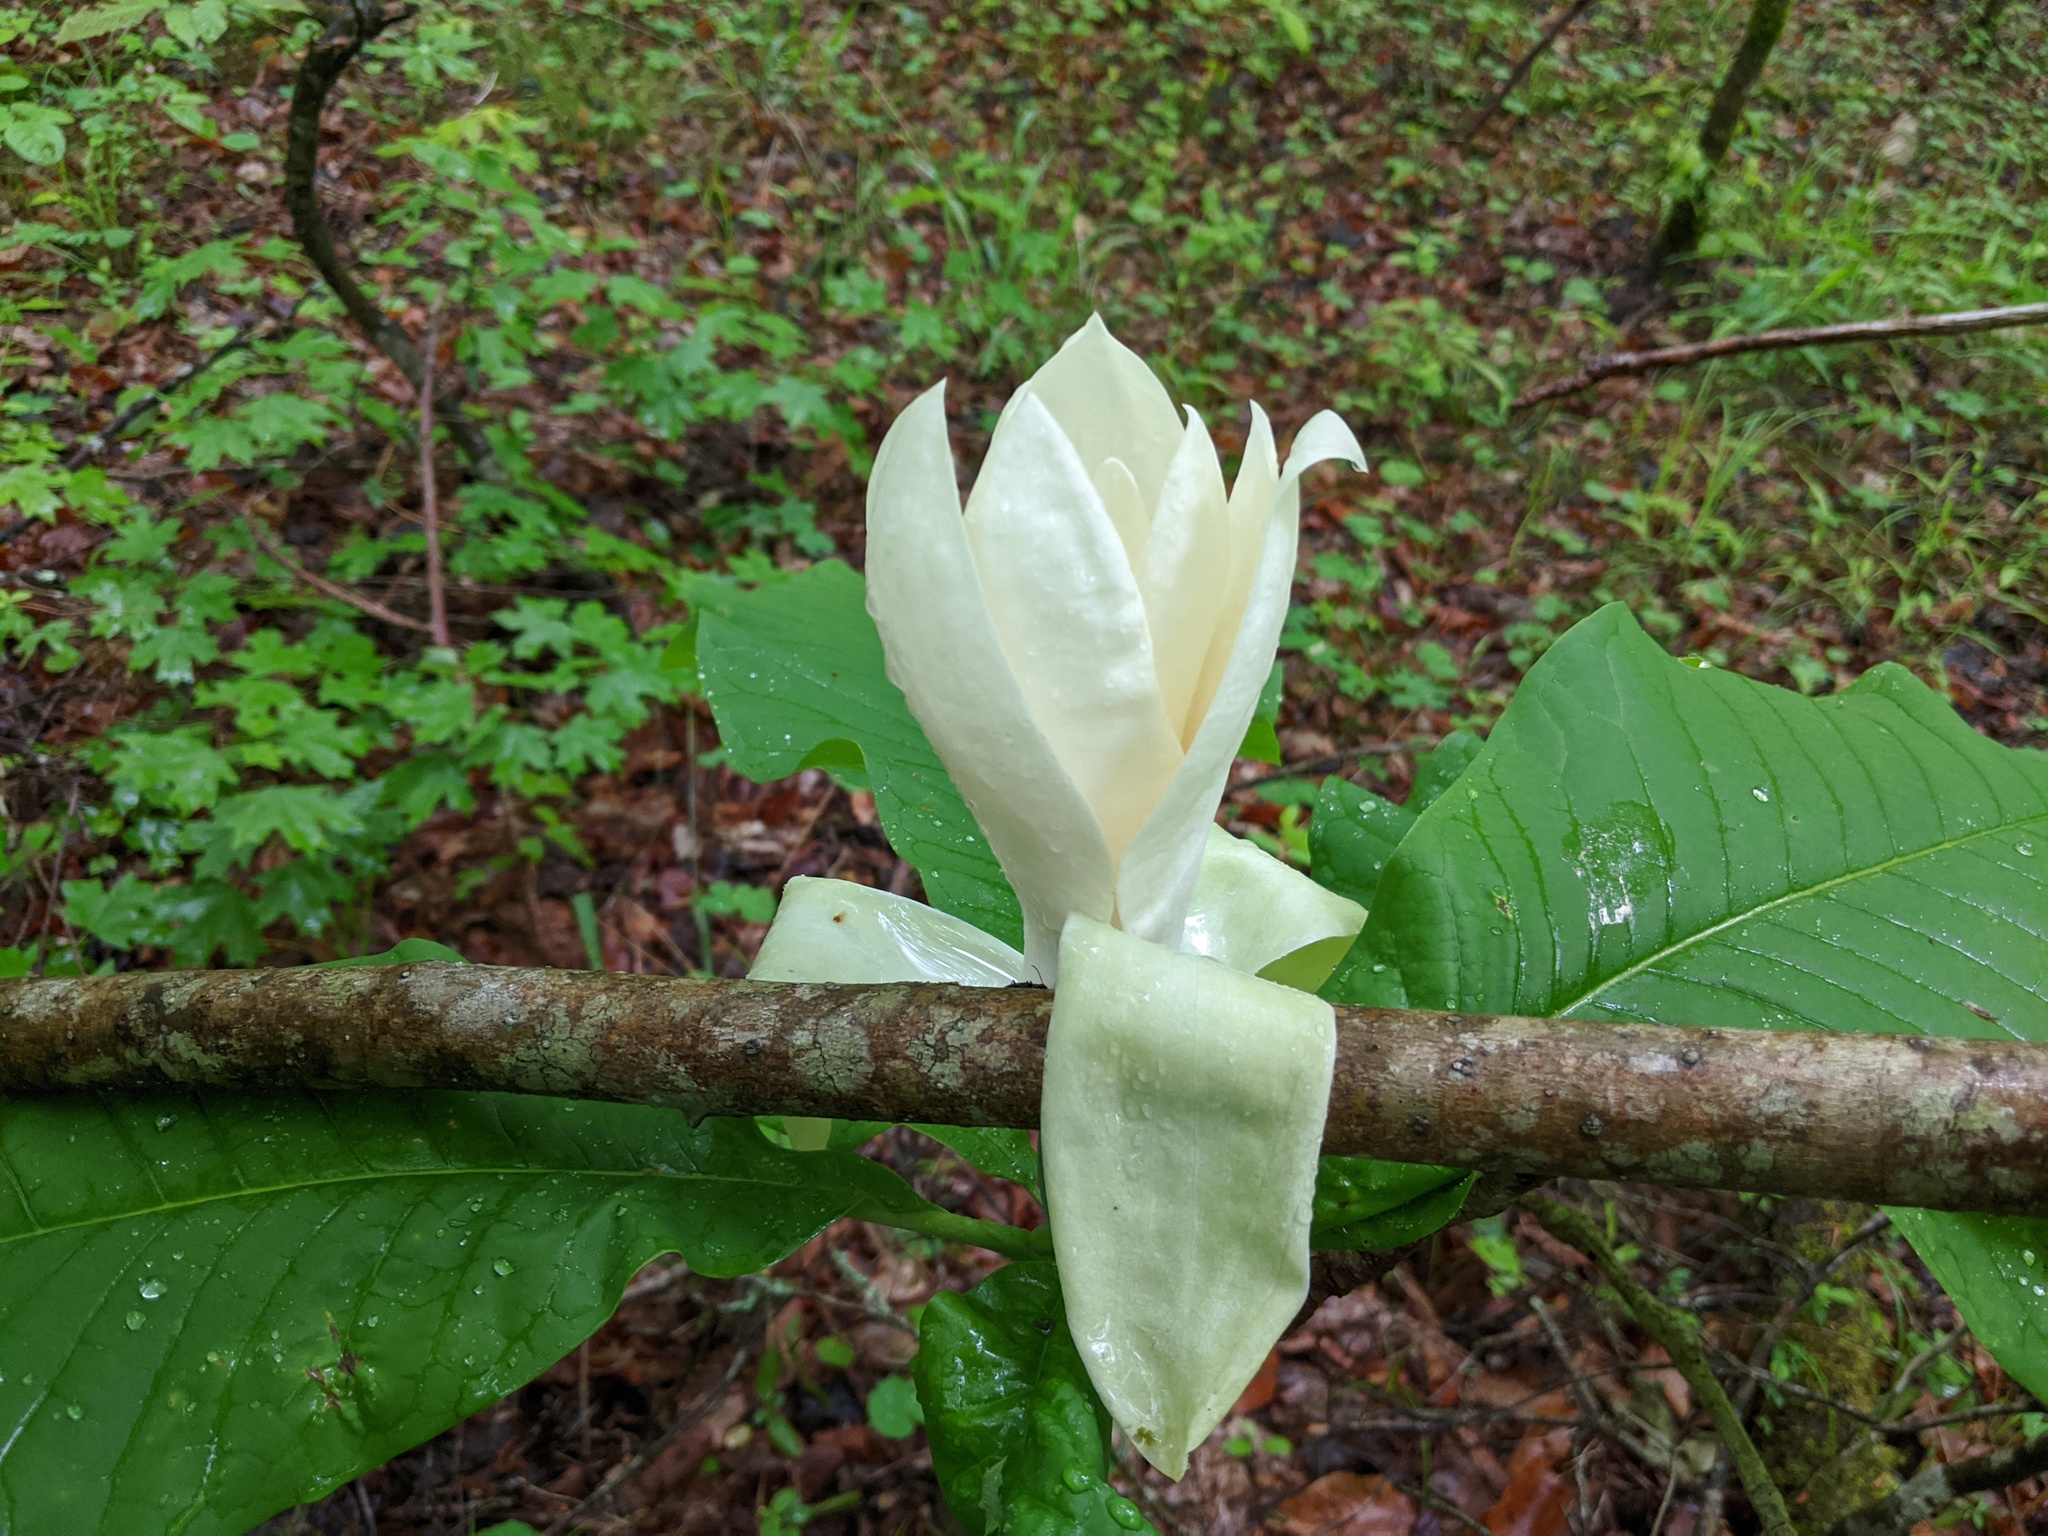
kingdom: Plantae
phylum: Tracheophyta
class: Magnoliopsida
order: Magnoliales
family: Magnoliaceae
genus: Magnolia
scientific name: Magnolia tripetala
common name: Umbrella magnolia
